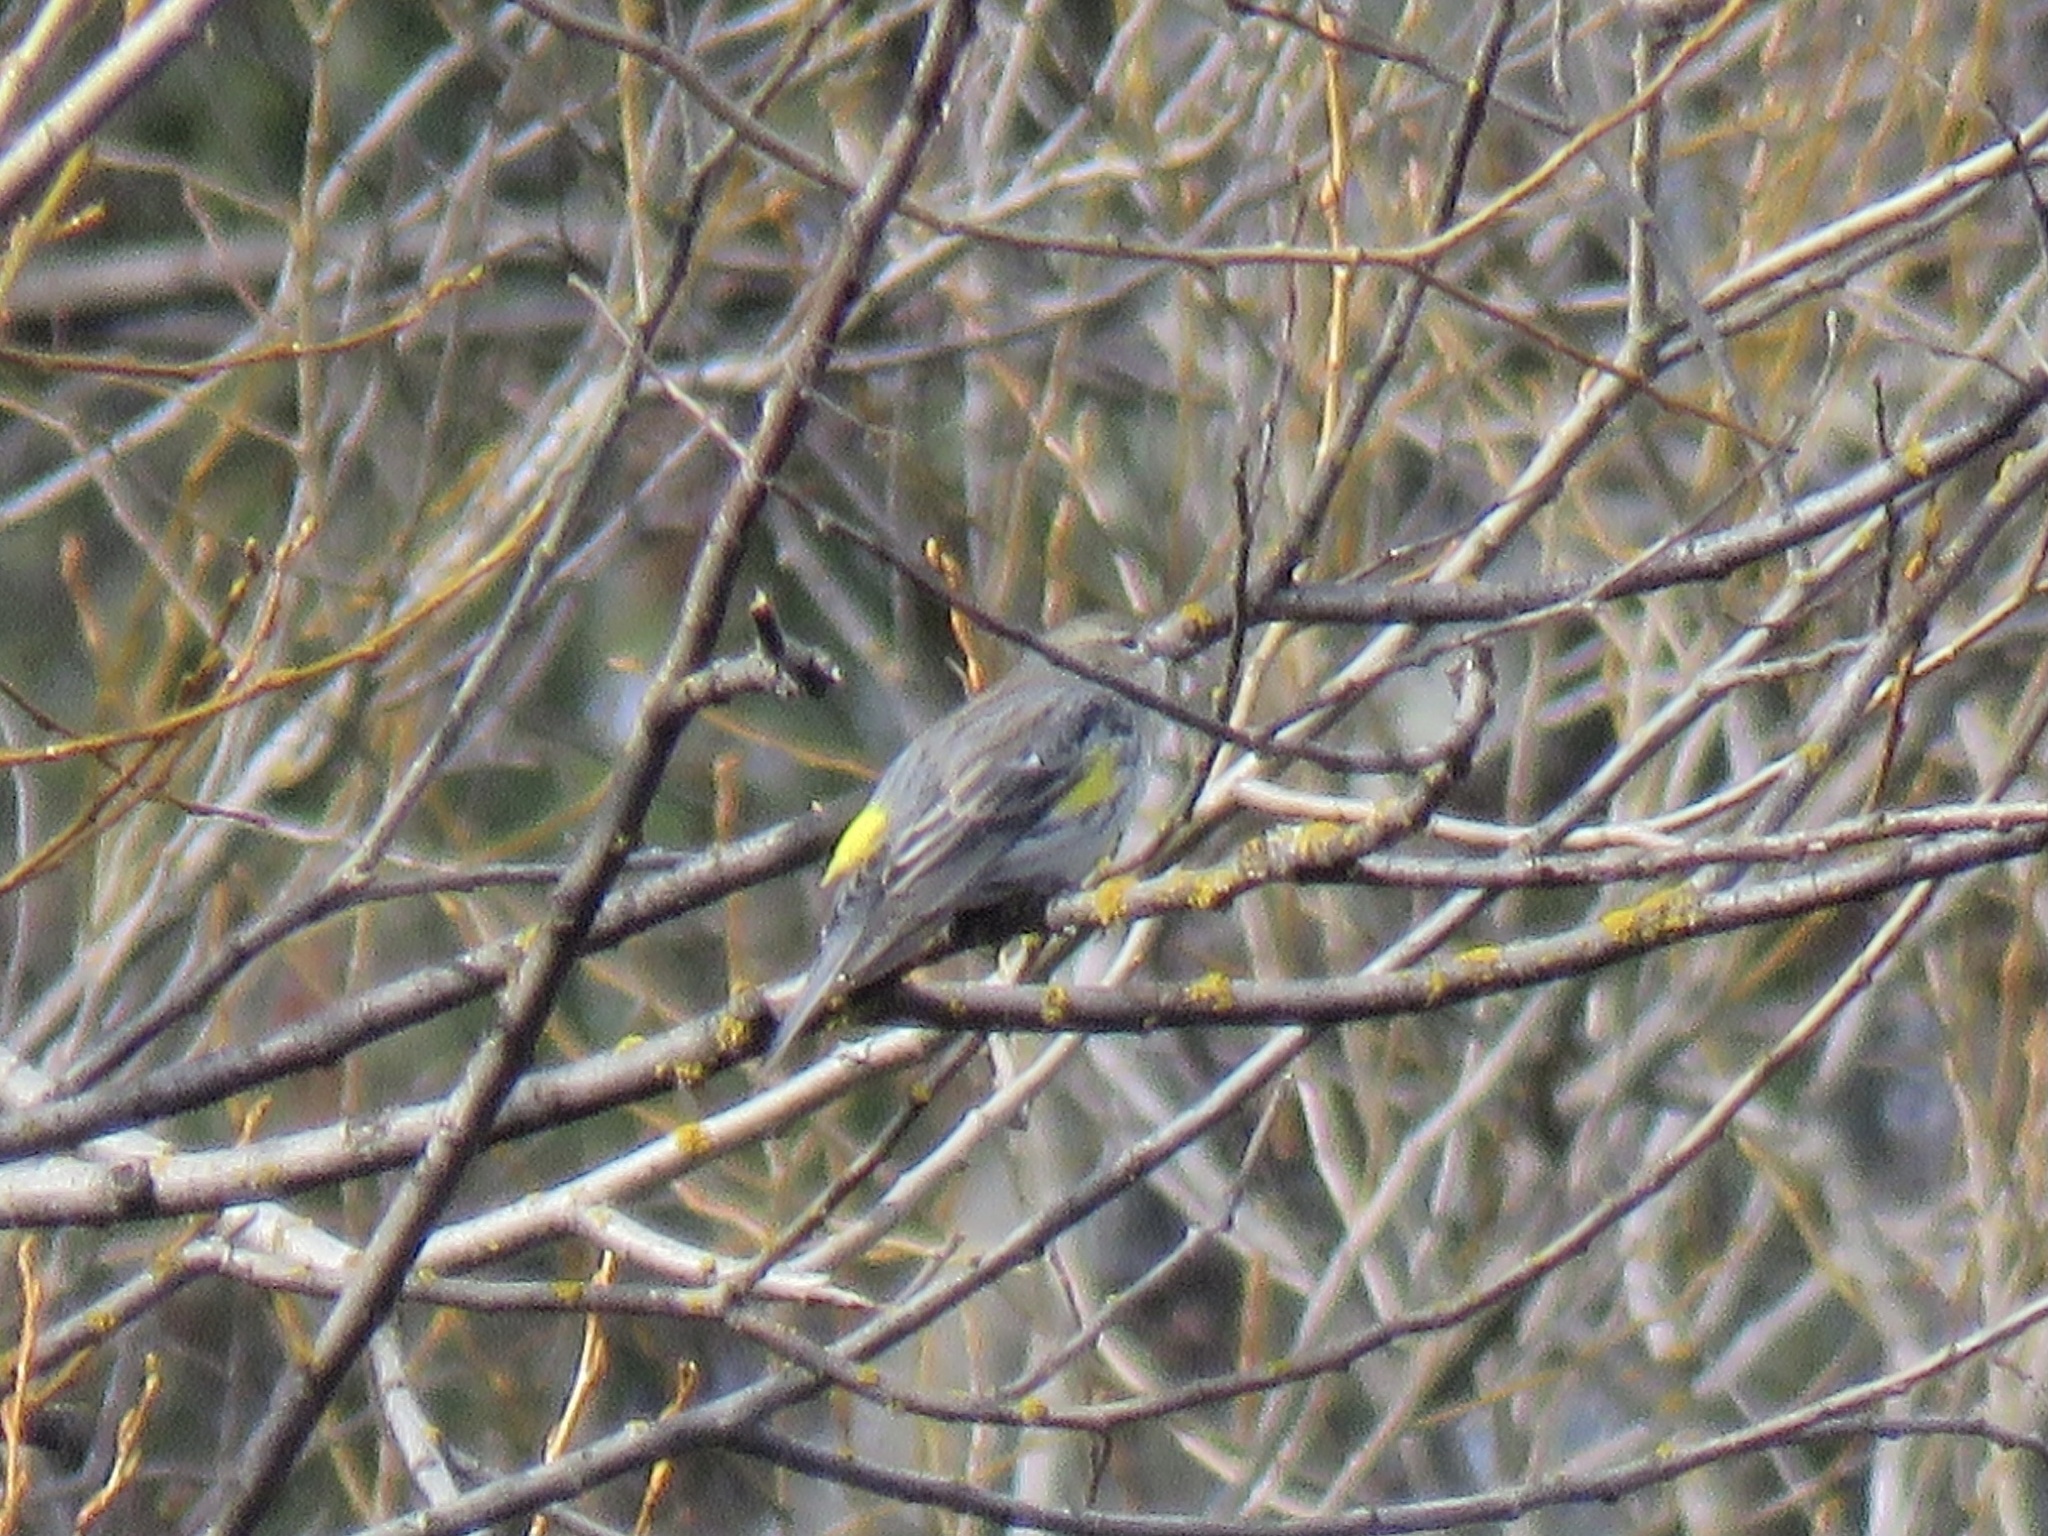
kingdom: Animalia
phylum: Chordata
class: Aves
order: Passeriformes
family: Parulidae
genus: Setophaga
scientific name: Setophaga coronata
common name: Myrtle warbler
